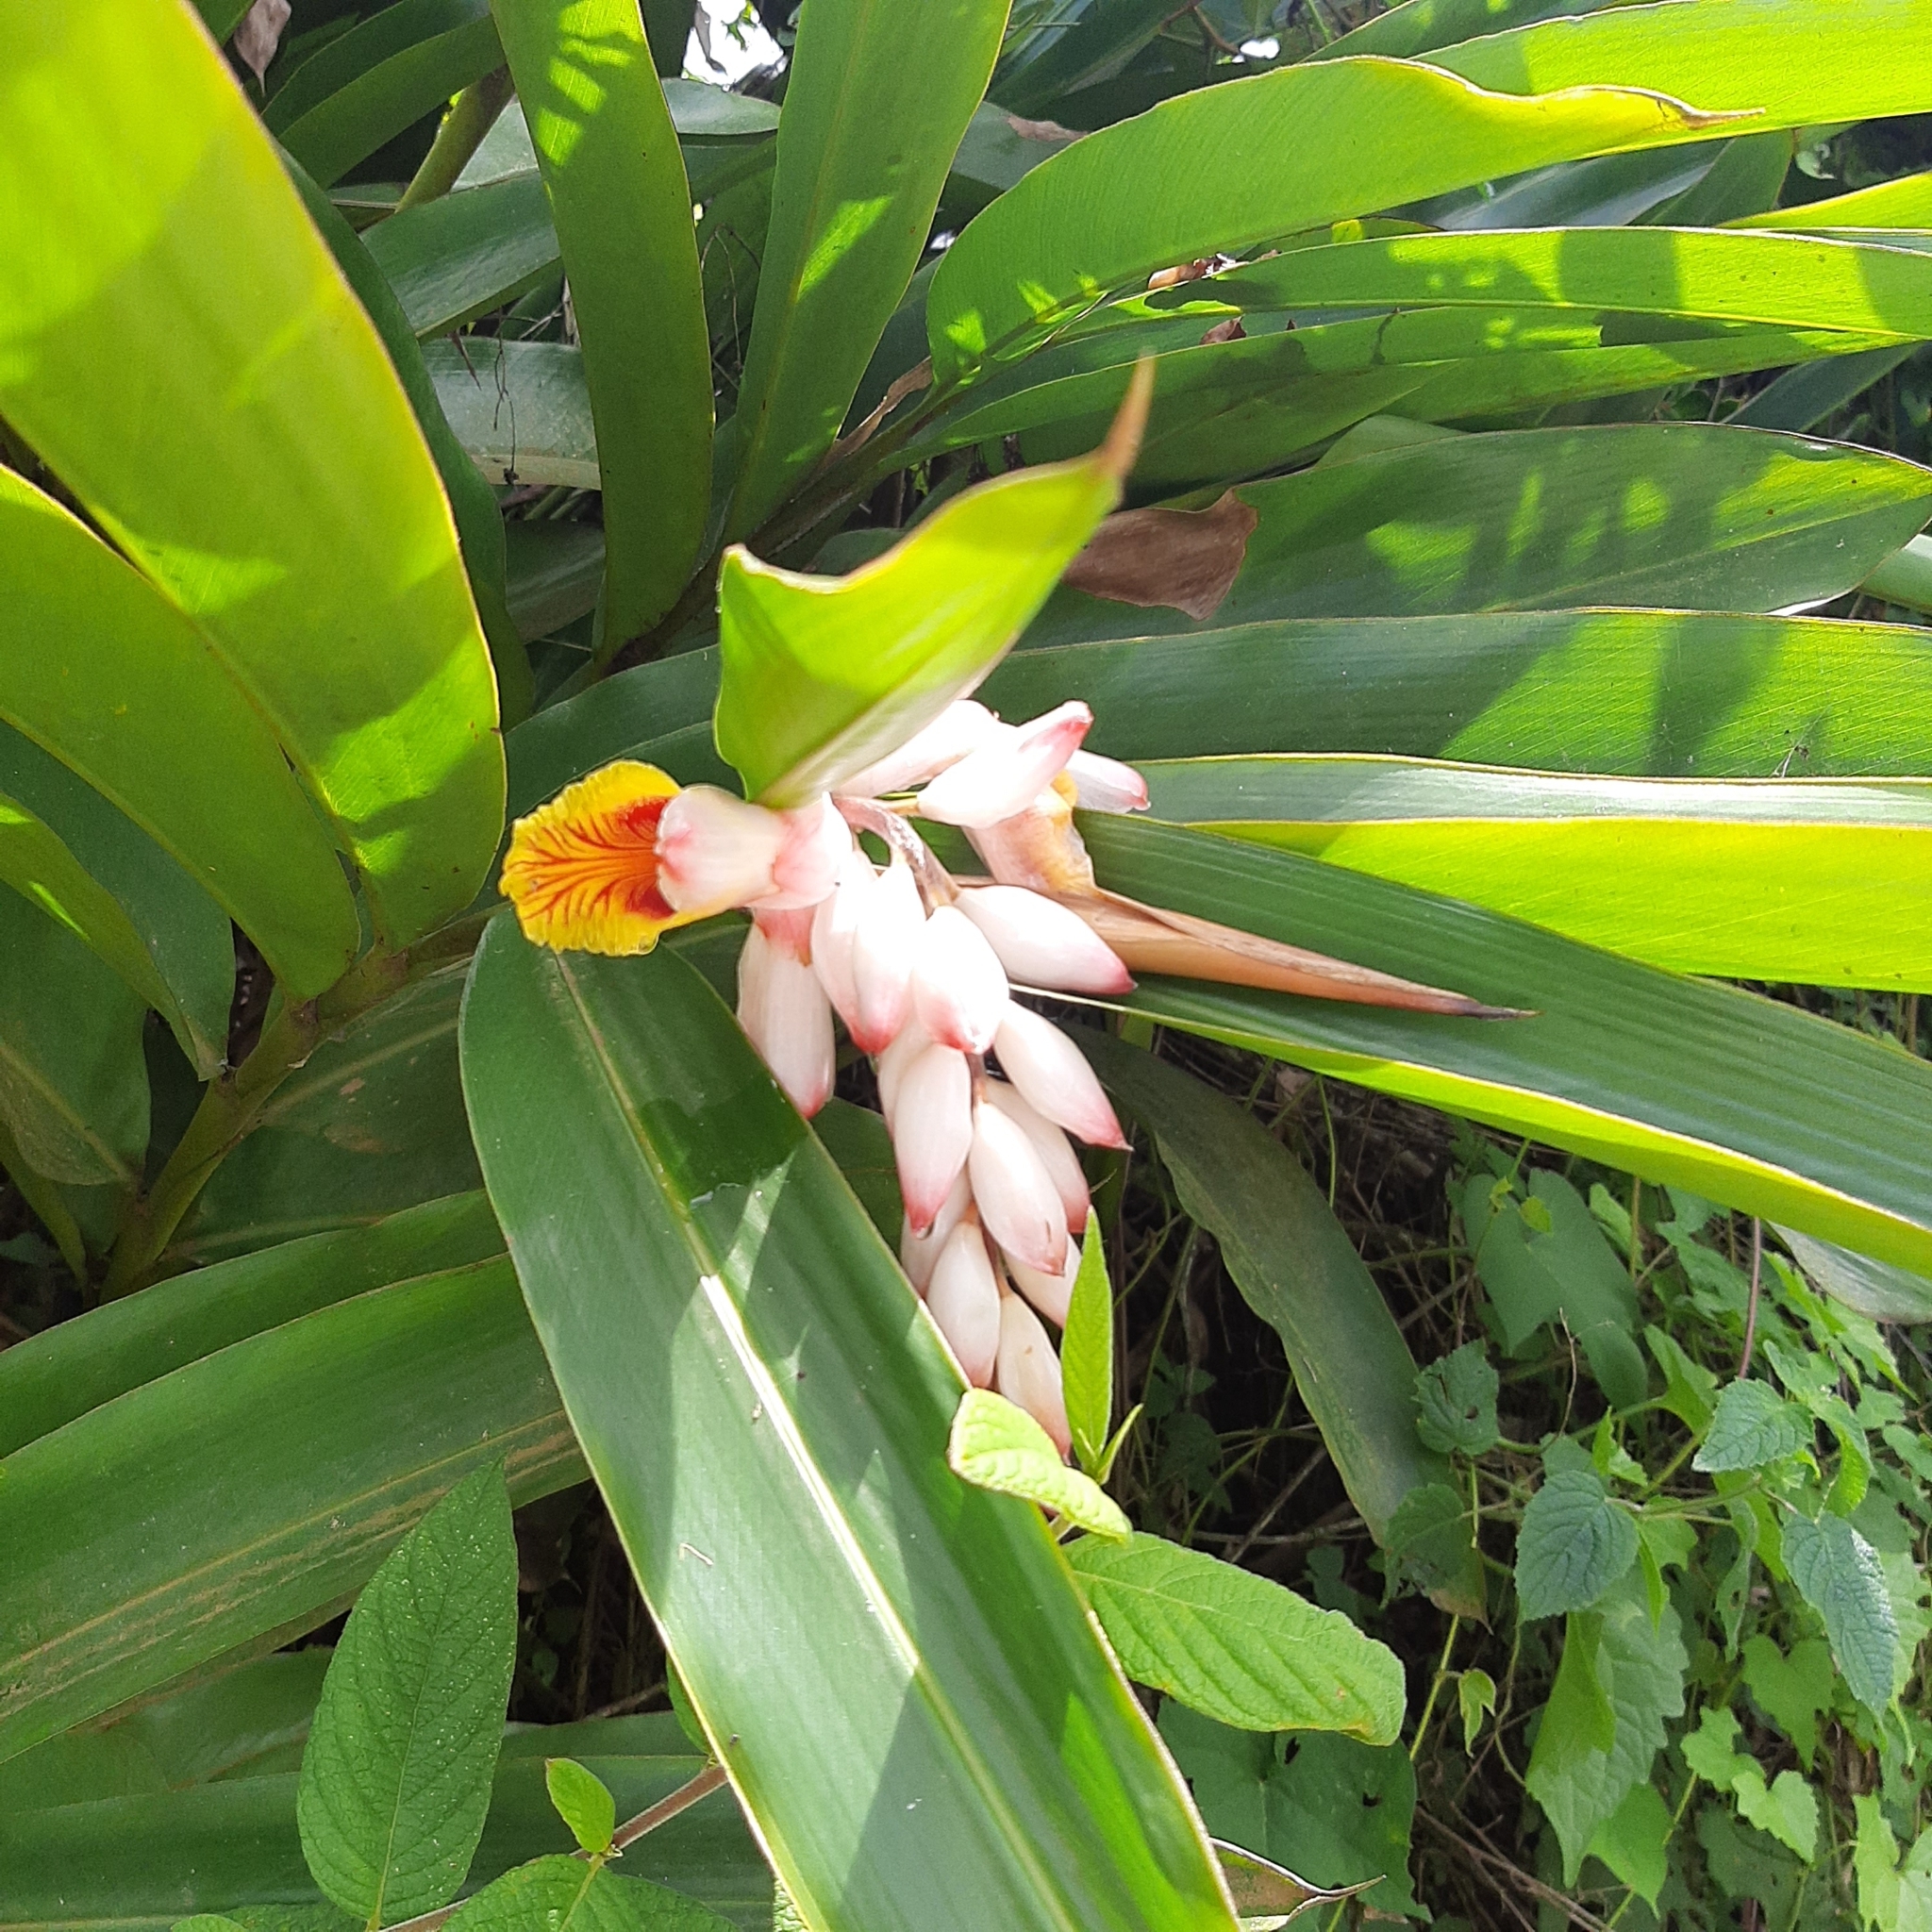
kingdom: Plantae
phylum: Tracheophyta
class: Liliopsida
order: Zingiberales
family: Zingiberaceae
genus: Alpinia
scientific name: Alpinia zerumbet
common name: Shellplant
